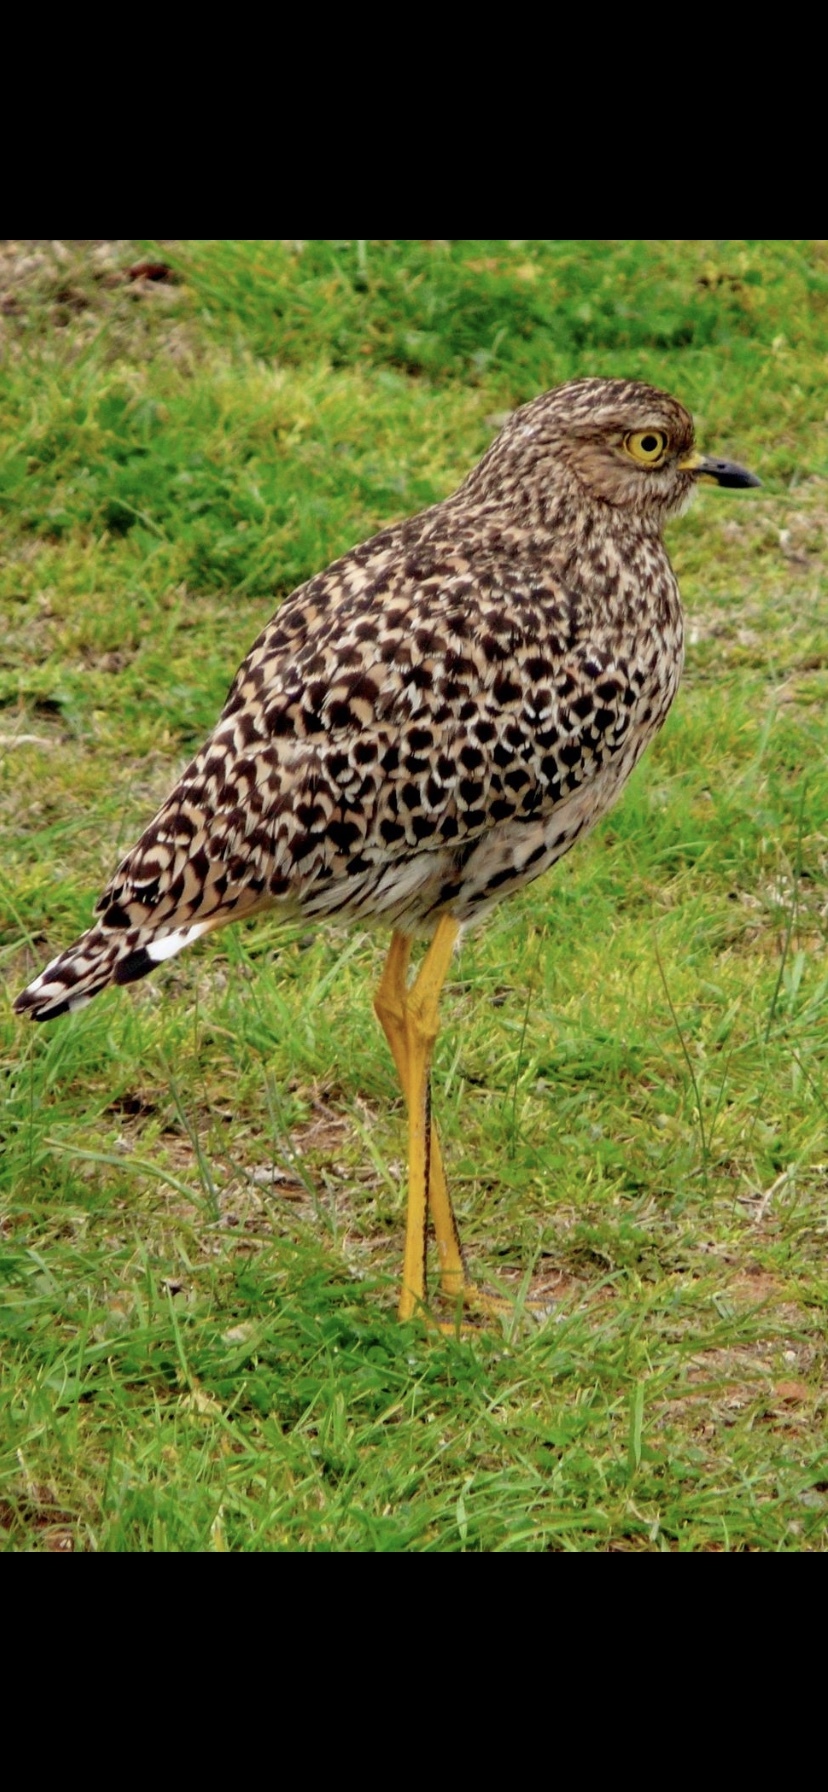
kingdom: Animalia
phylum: Chordata
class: Aves
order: Charadriiformes
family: Burhinidae
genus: Burhinus
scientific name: Burhinus capensis
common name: Spotted thick-knee
